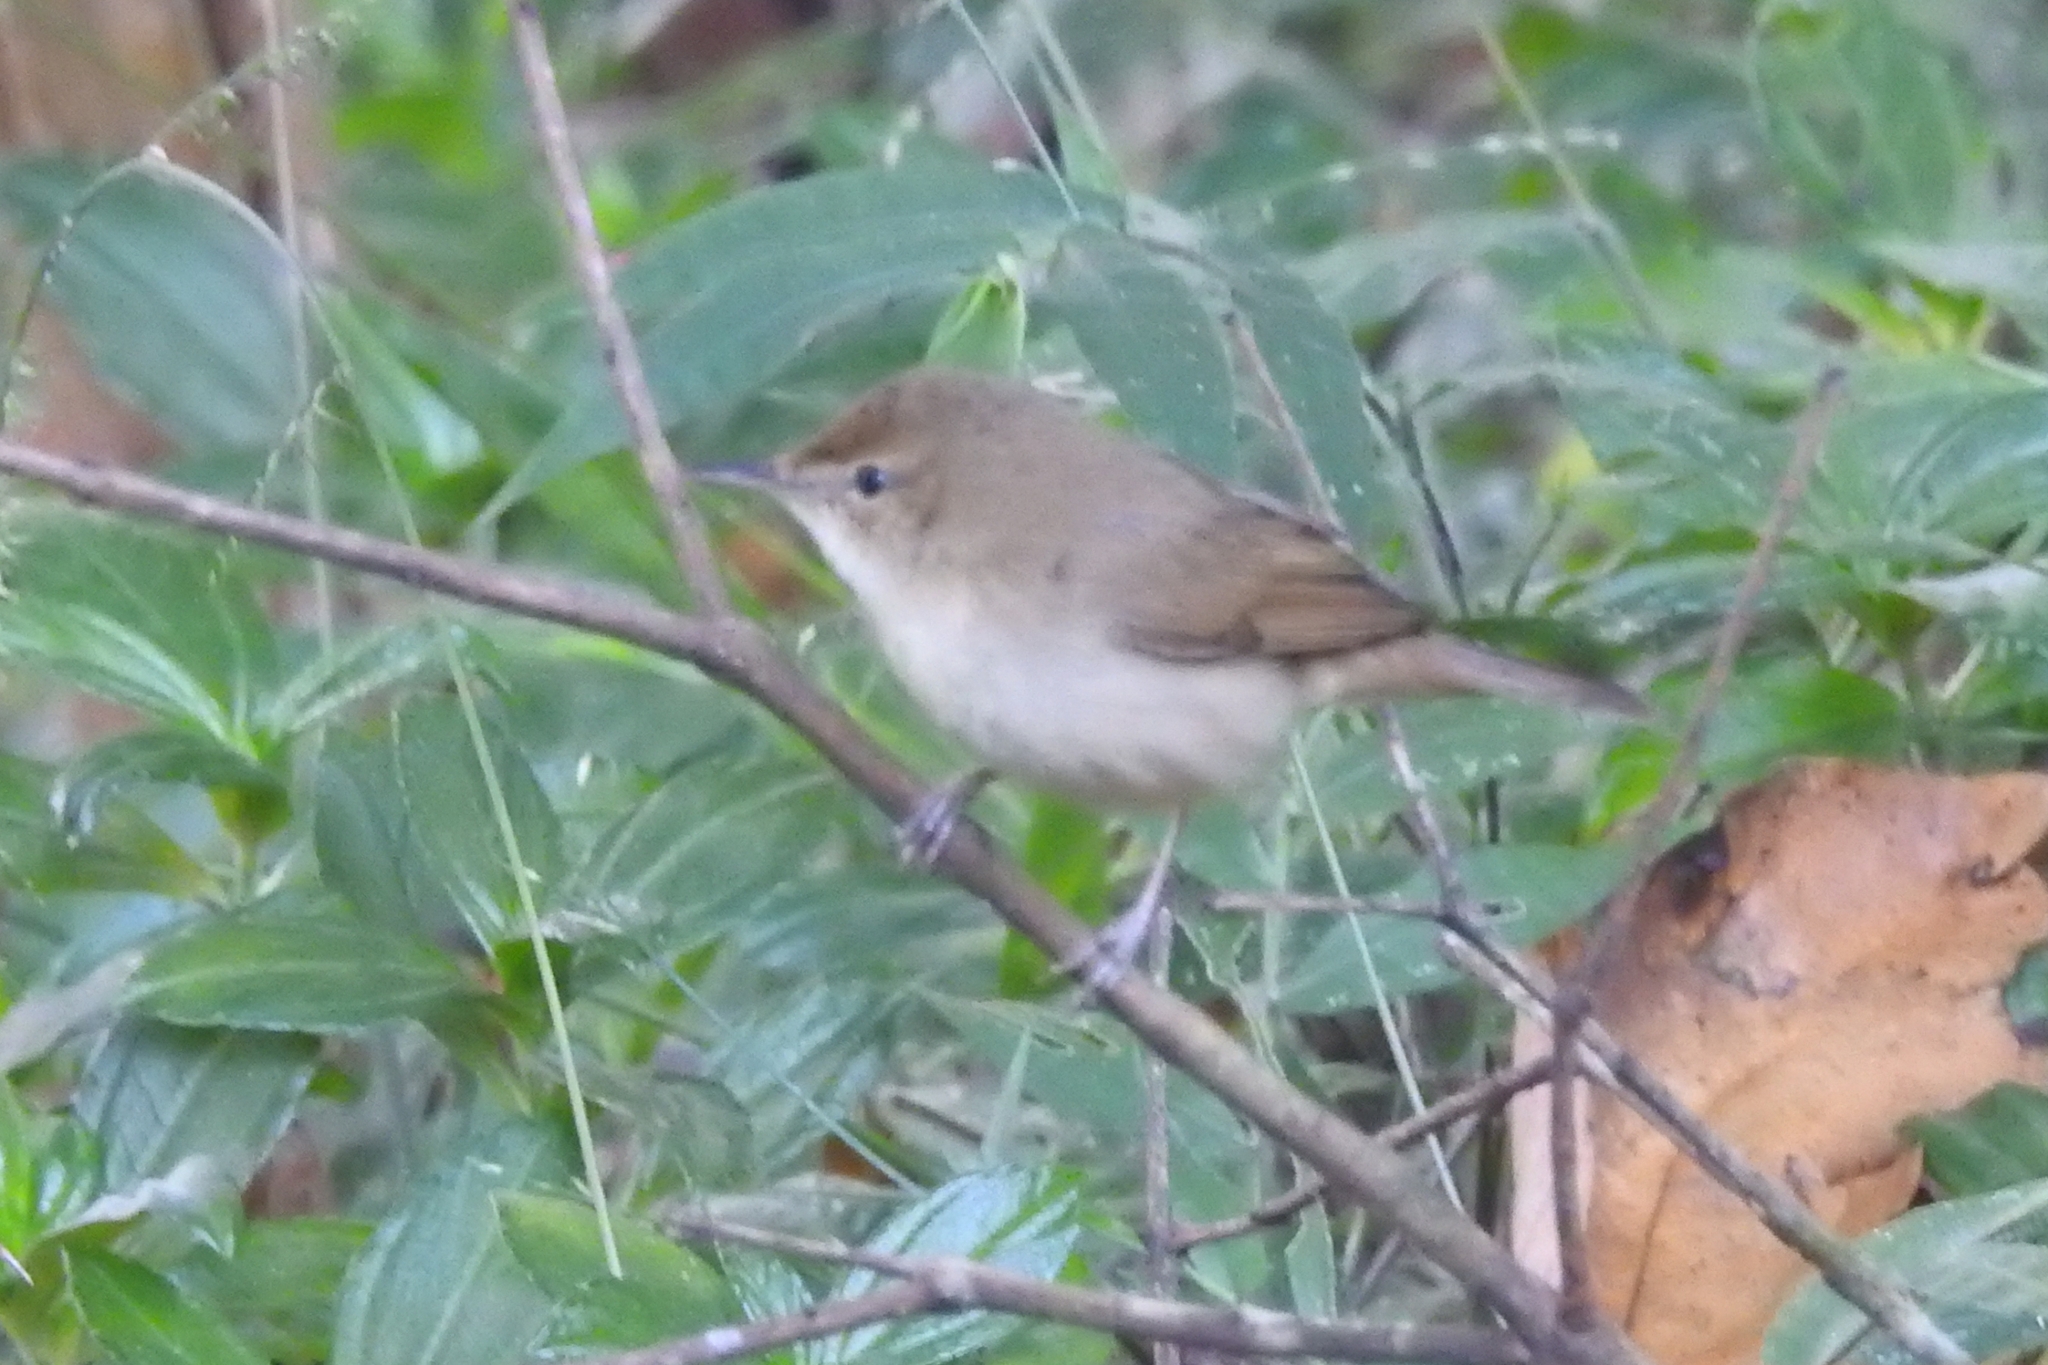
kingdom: Animalia
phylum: Chordata
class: Aves
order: Passeriformes
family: Acrocephalidae
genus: Acrocephalus
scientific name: Acrocephalus dumetorum
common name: Blyth's reed warbler
